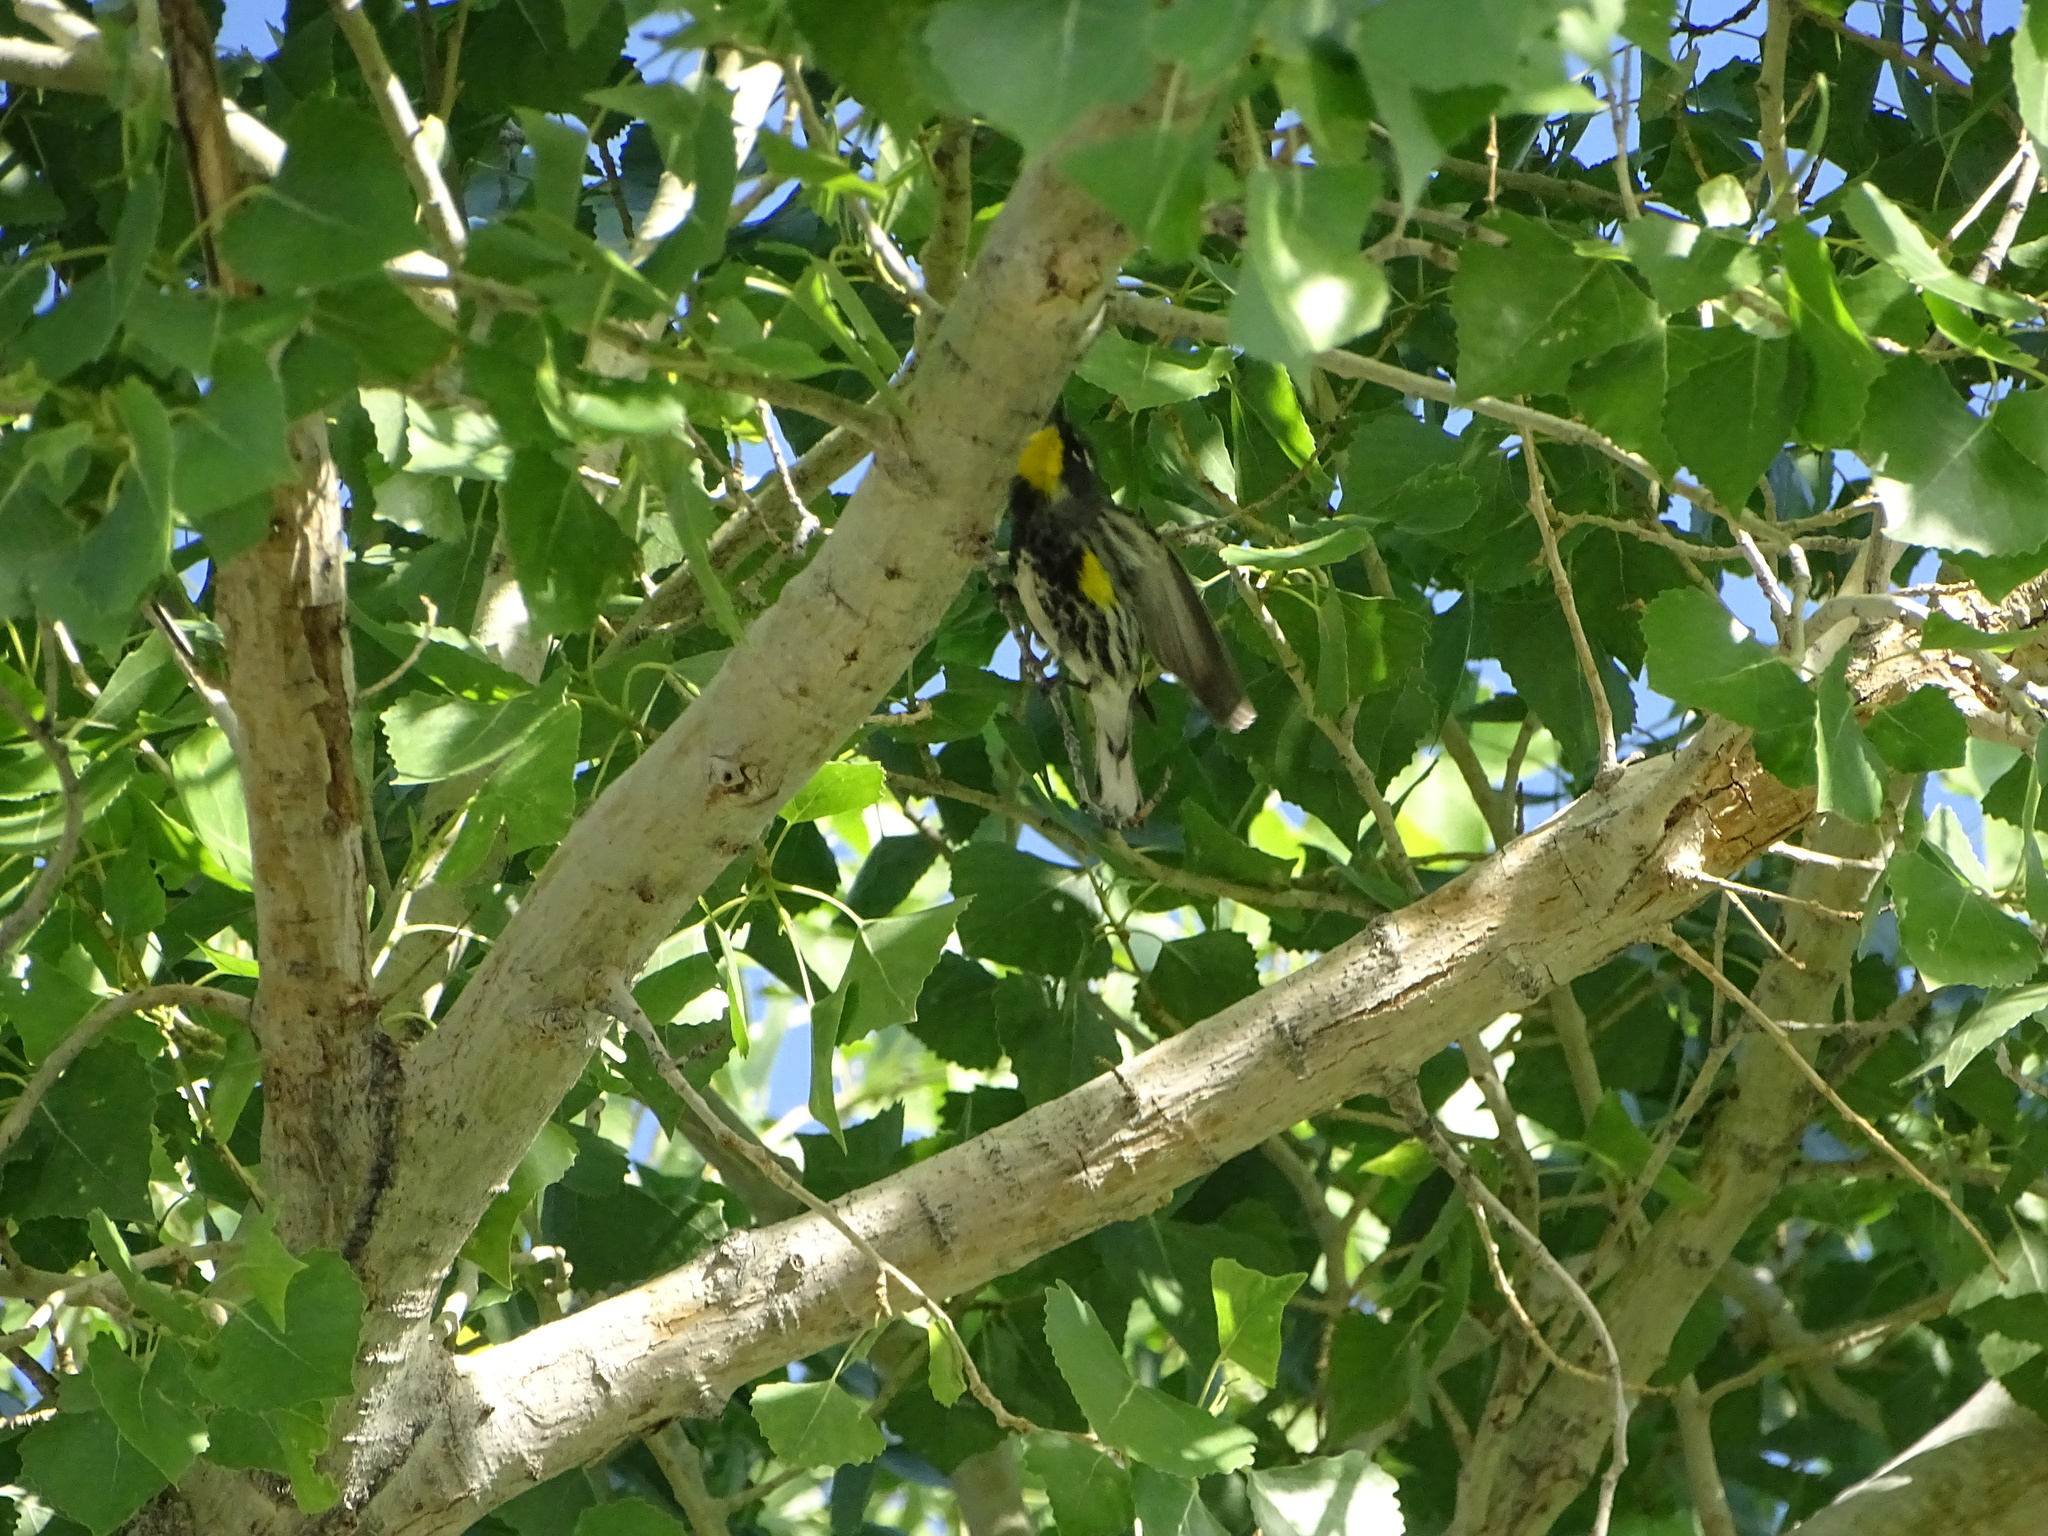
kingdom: Animalia
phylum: Chordata
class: Aves
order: Passeriformes
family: Parulidae
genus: Setophaga
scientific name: Setophaga coronata
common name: Myrtle warbler
